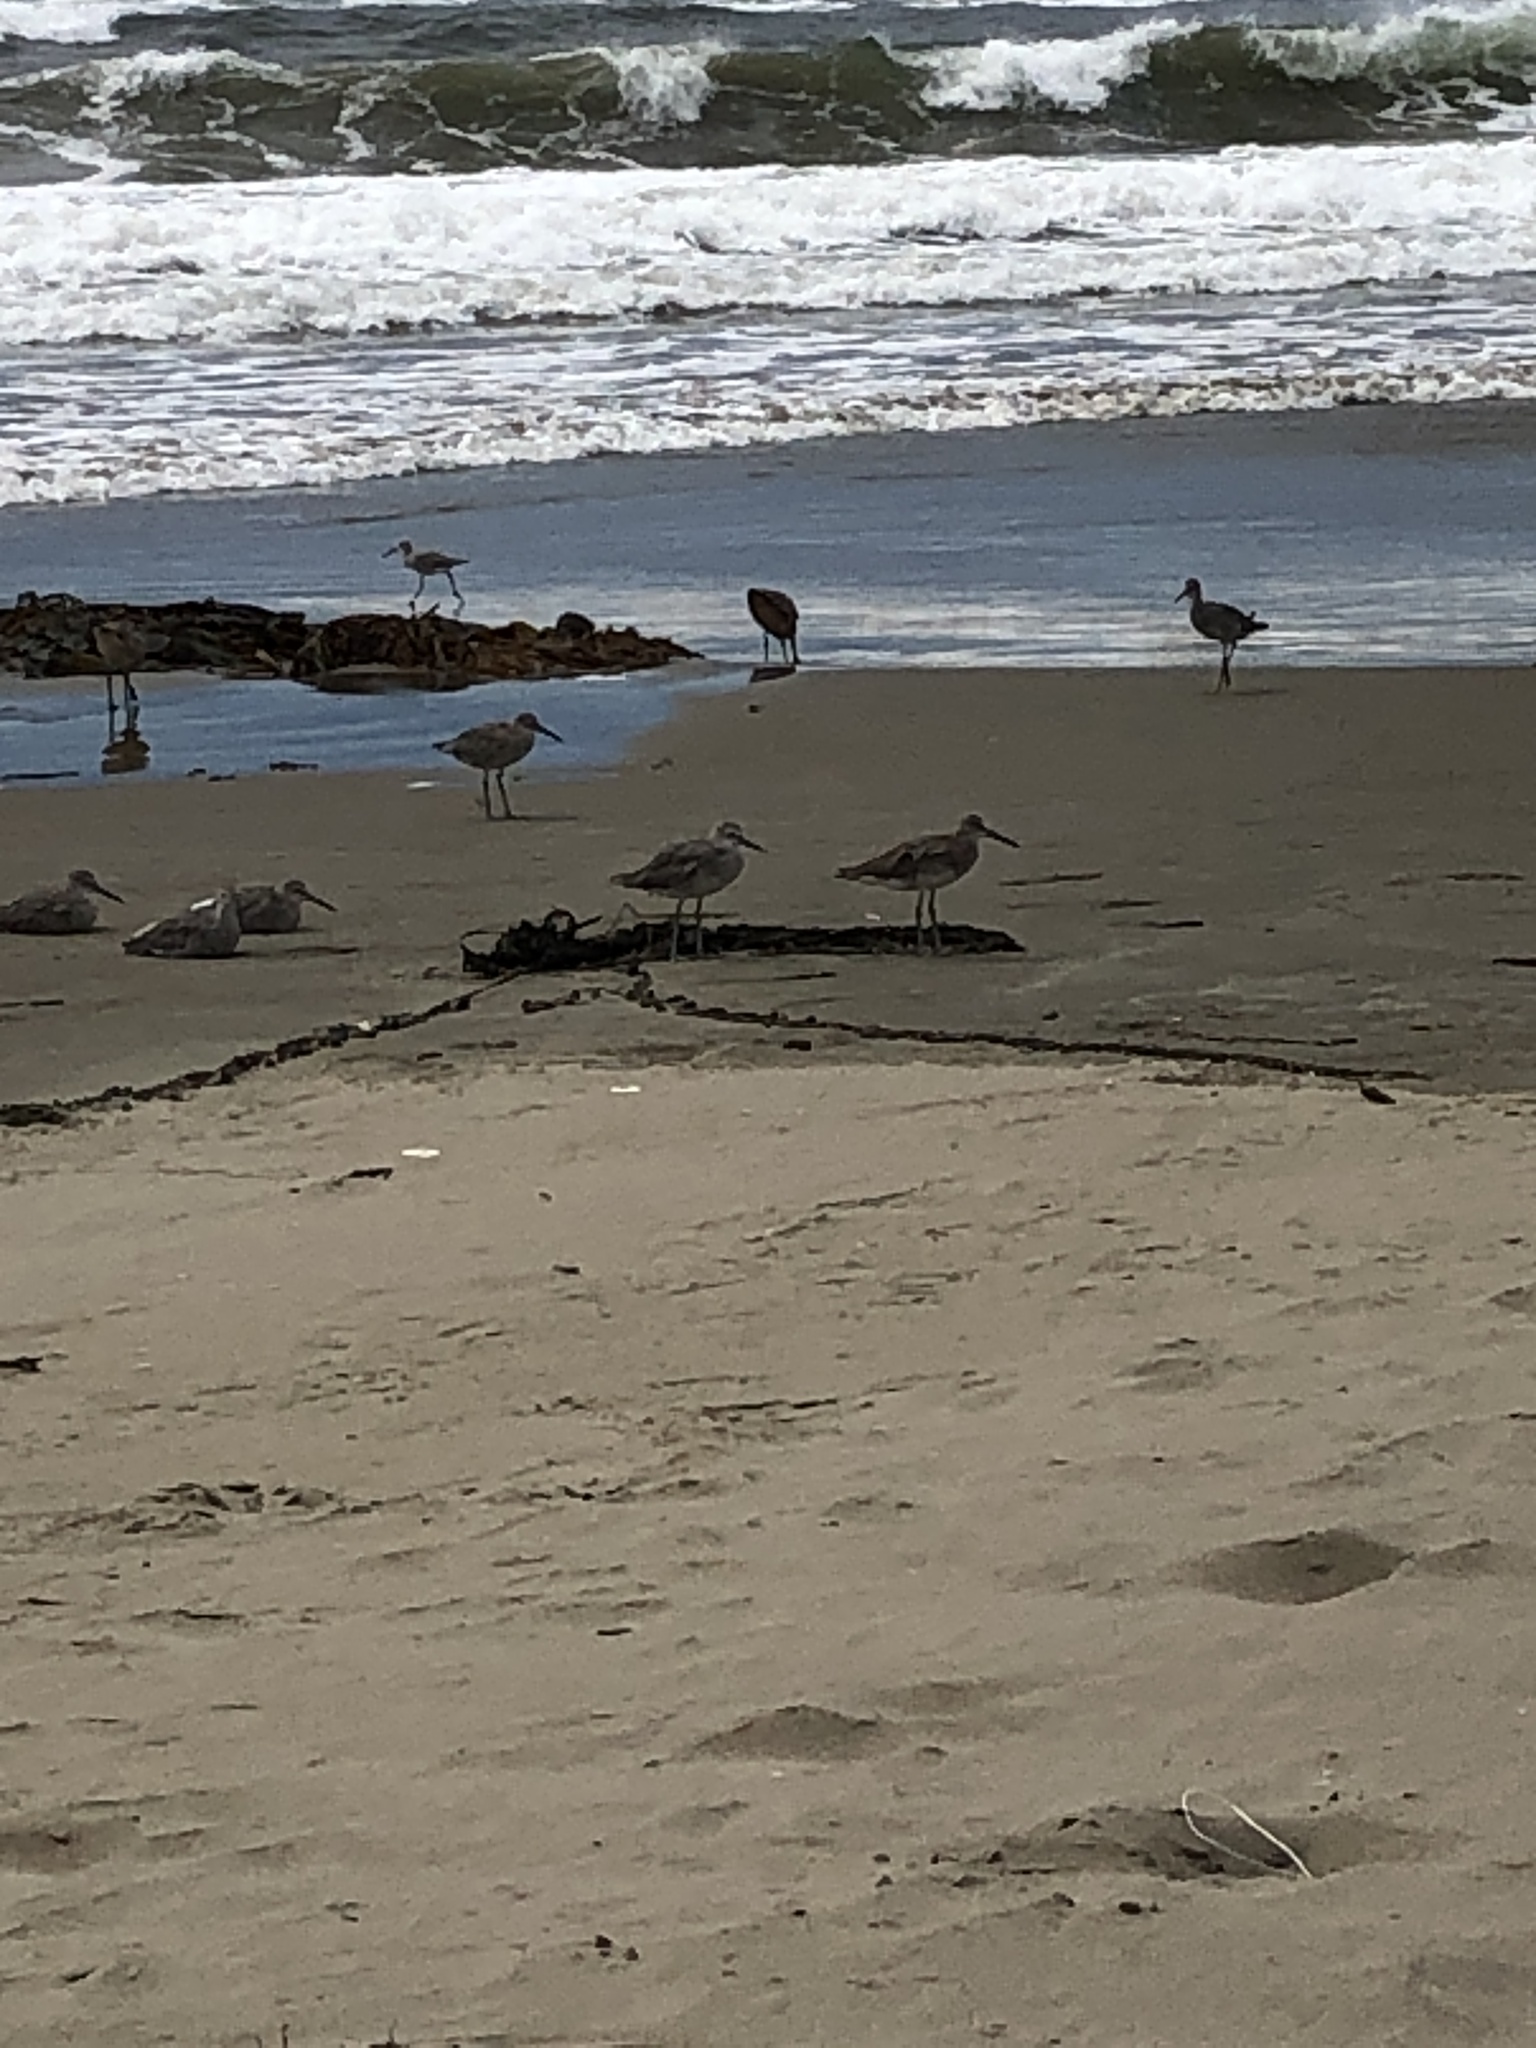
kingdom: Animalia
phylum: Chordata
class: Aves
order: Charadriiformes
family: Scolopacidae
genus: Tringa
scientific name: Tringa semipalmata
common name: Willet
